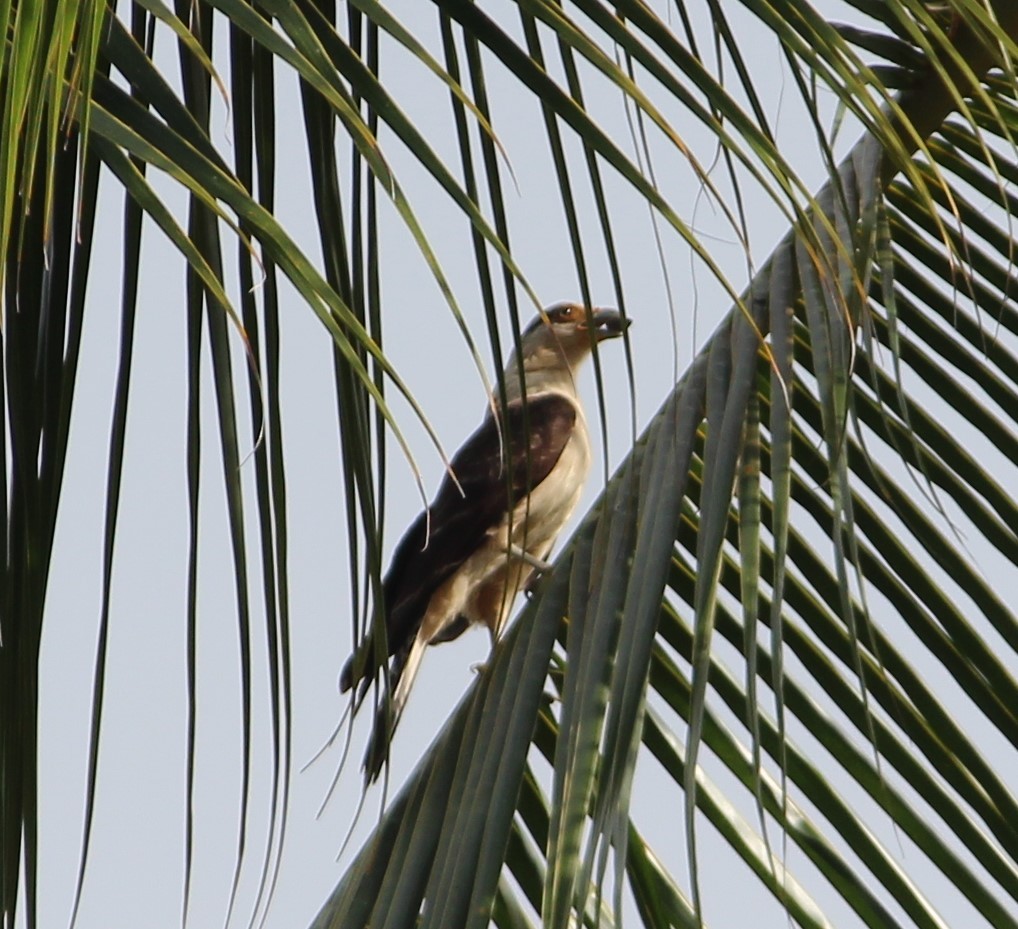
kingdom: Animalia
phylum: Chordata
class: Aves
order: Falconiformes
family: Falconidae
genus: Daptrius
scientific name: Daptrius
